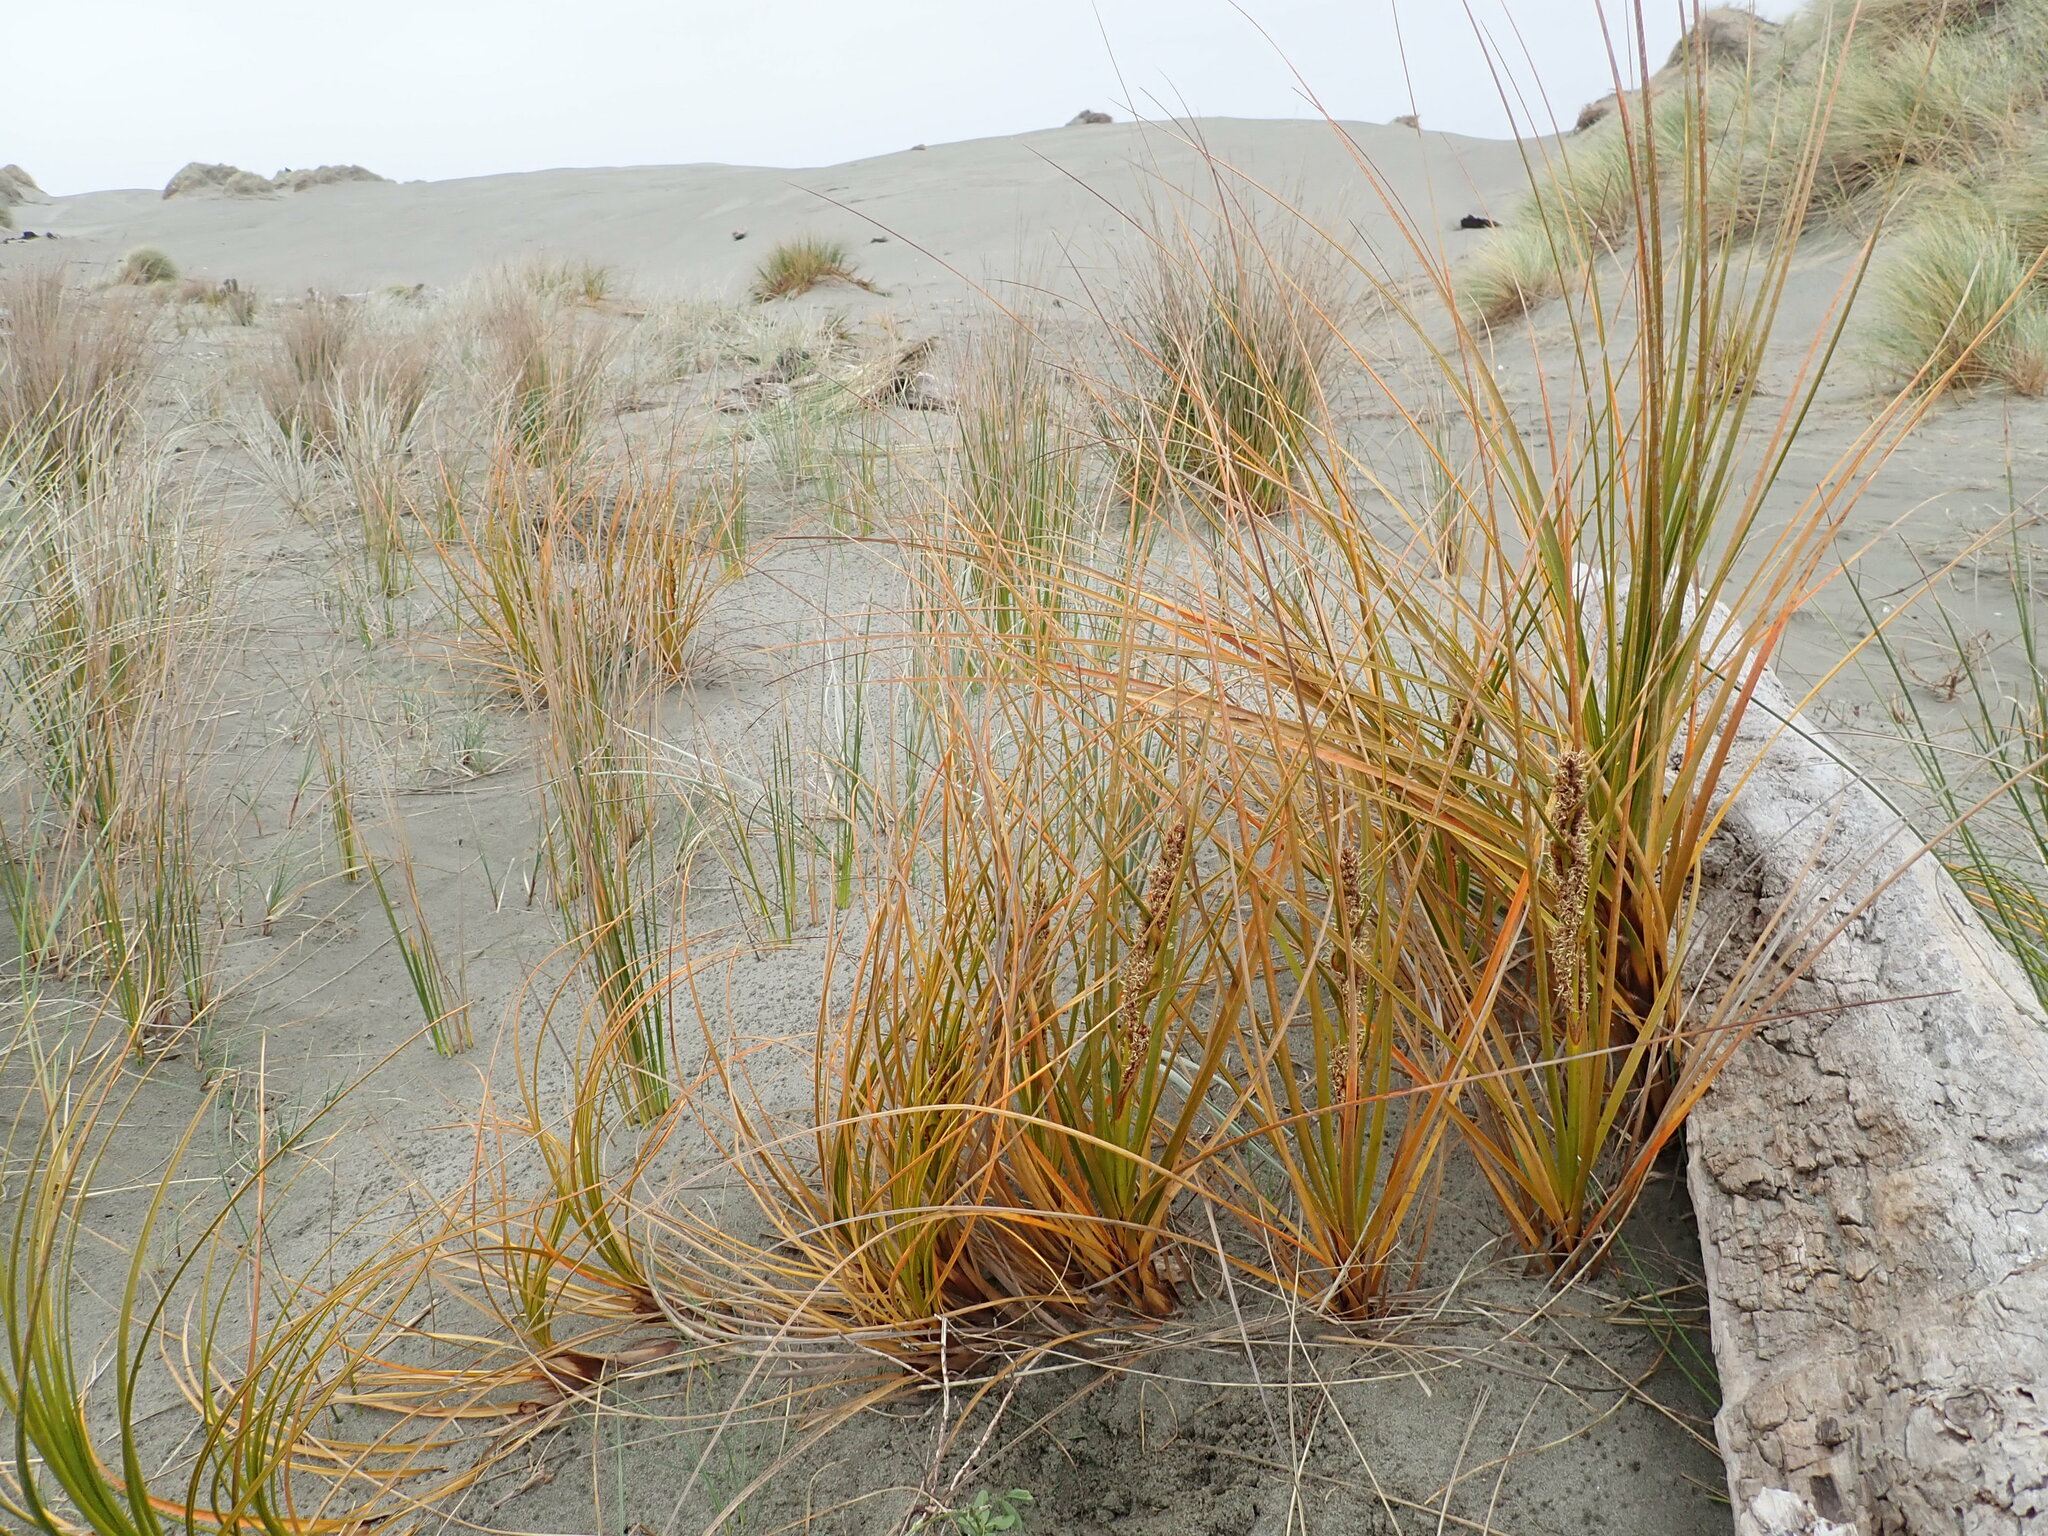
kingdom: Plantae
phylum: Tracheophyta
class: Liliopsida
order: Poales
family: Cyperaceae
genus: Ficinia
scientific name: Ficinia spiralis
